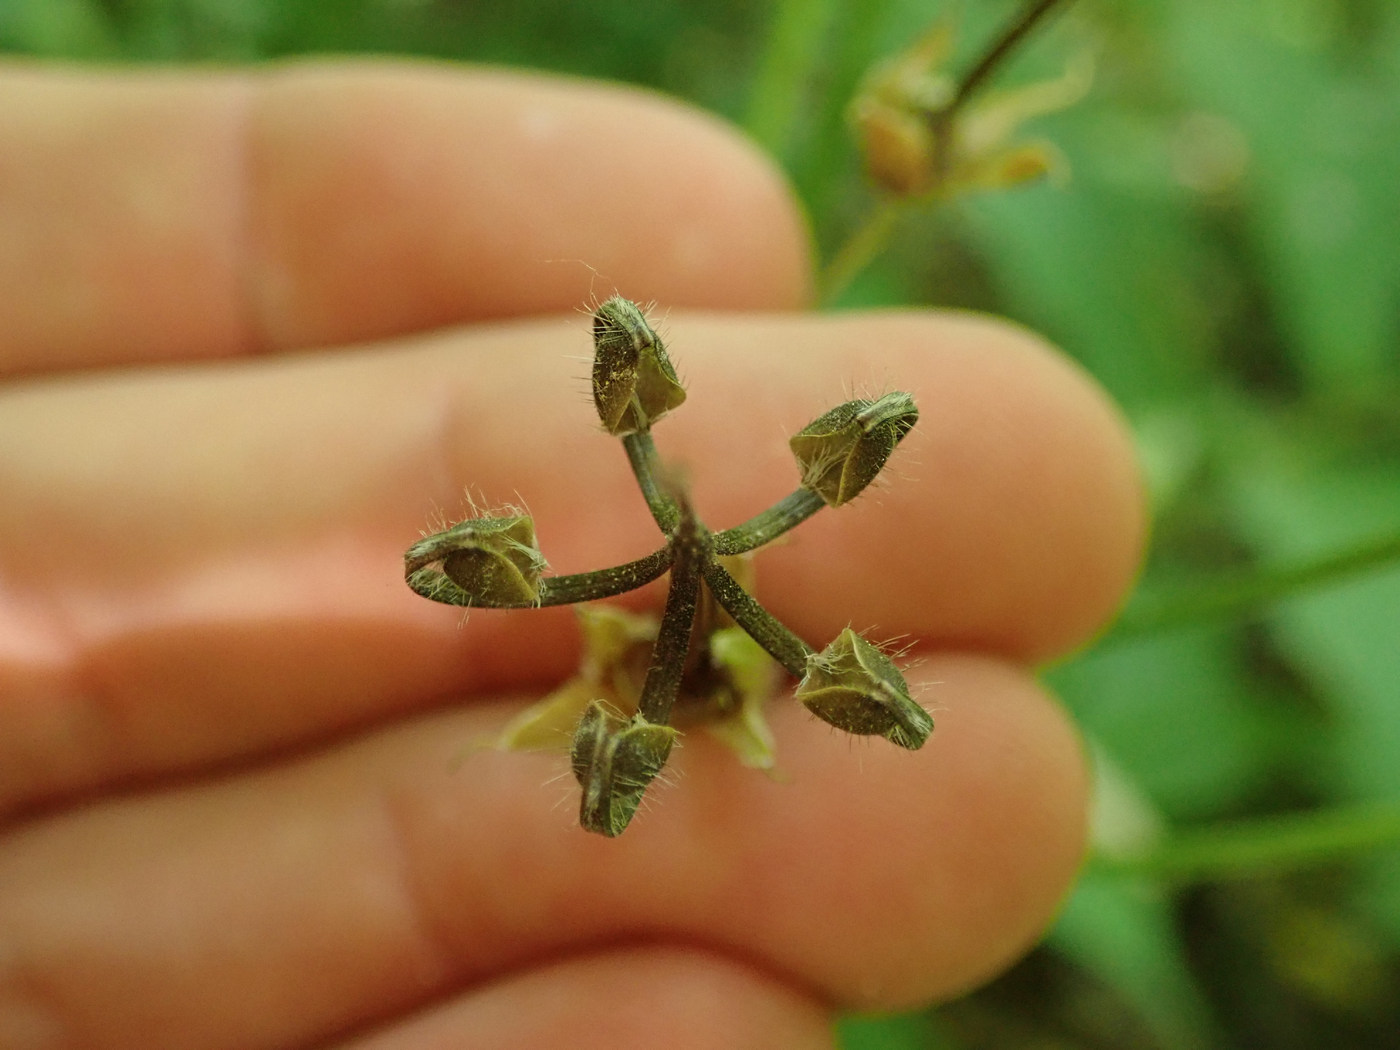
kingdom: Plantae
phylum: Tracheophyta
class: Magnoliopsida
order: Geraniales
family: Geraniaceae
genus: Geranium
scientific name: Geranium maculatum
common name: Spotted geranium
